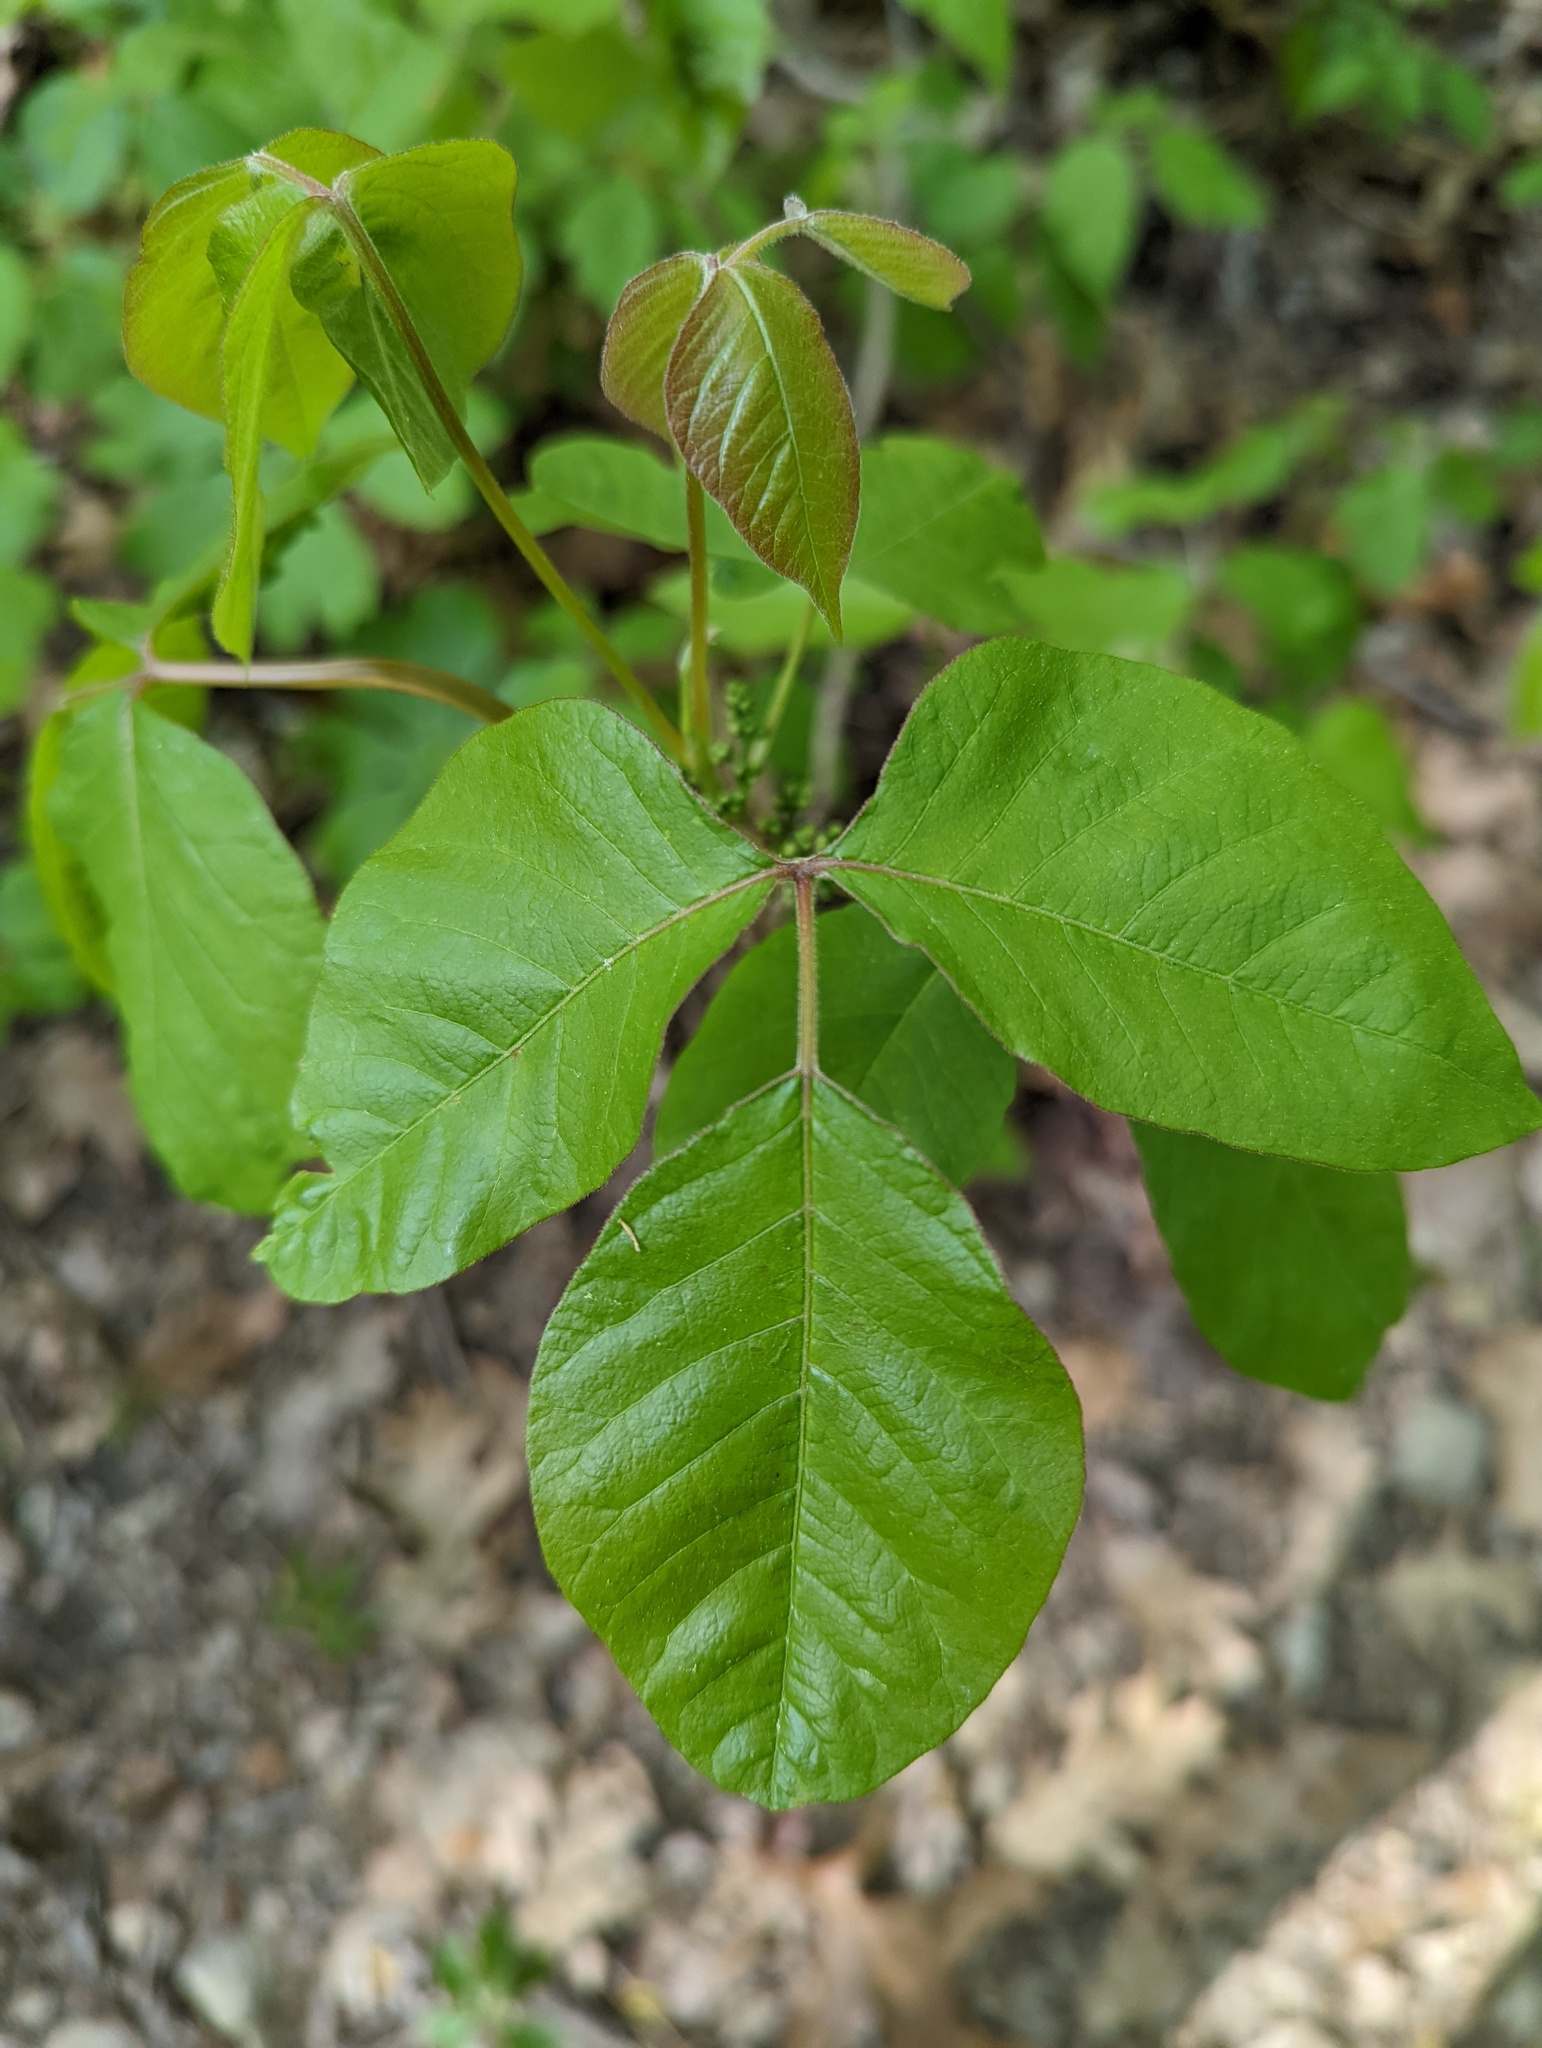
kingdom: Plantae
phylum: Tracheophyta
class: Magnoliopsida
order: Sapindales
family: Anacardiaceae
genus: Toxicodendron
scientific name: Toxicodendron radicans
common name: Poison ivy
